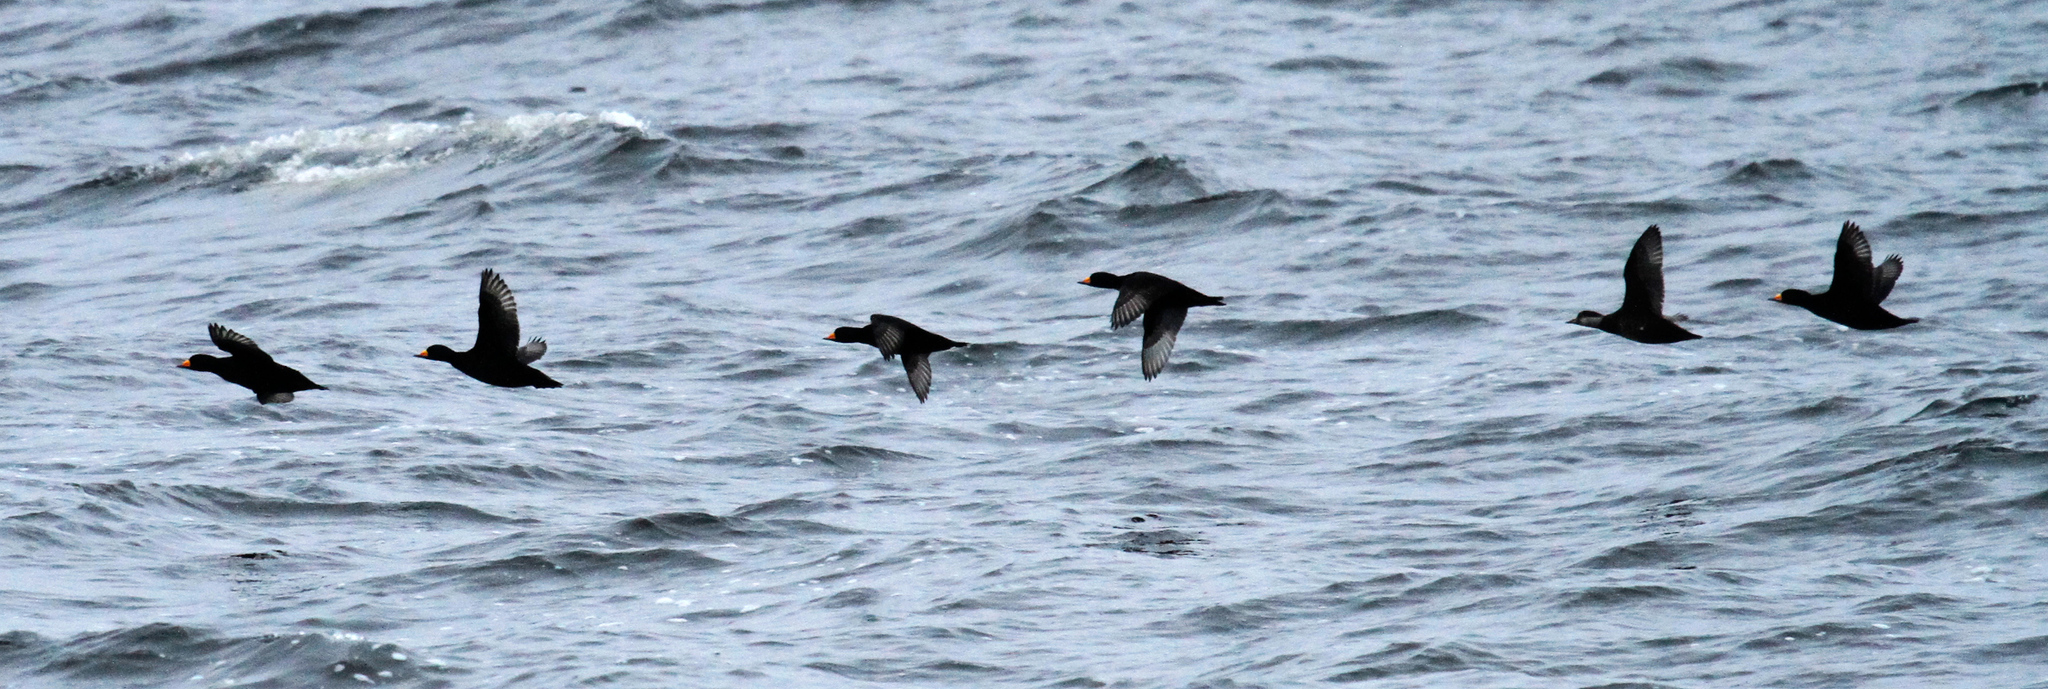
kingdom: Animalia
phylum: Chordata
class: Aves
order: Anseriformes
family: Anatidae
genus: Melanitta
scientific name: Melanitta americana
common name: Black scoter
